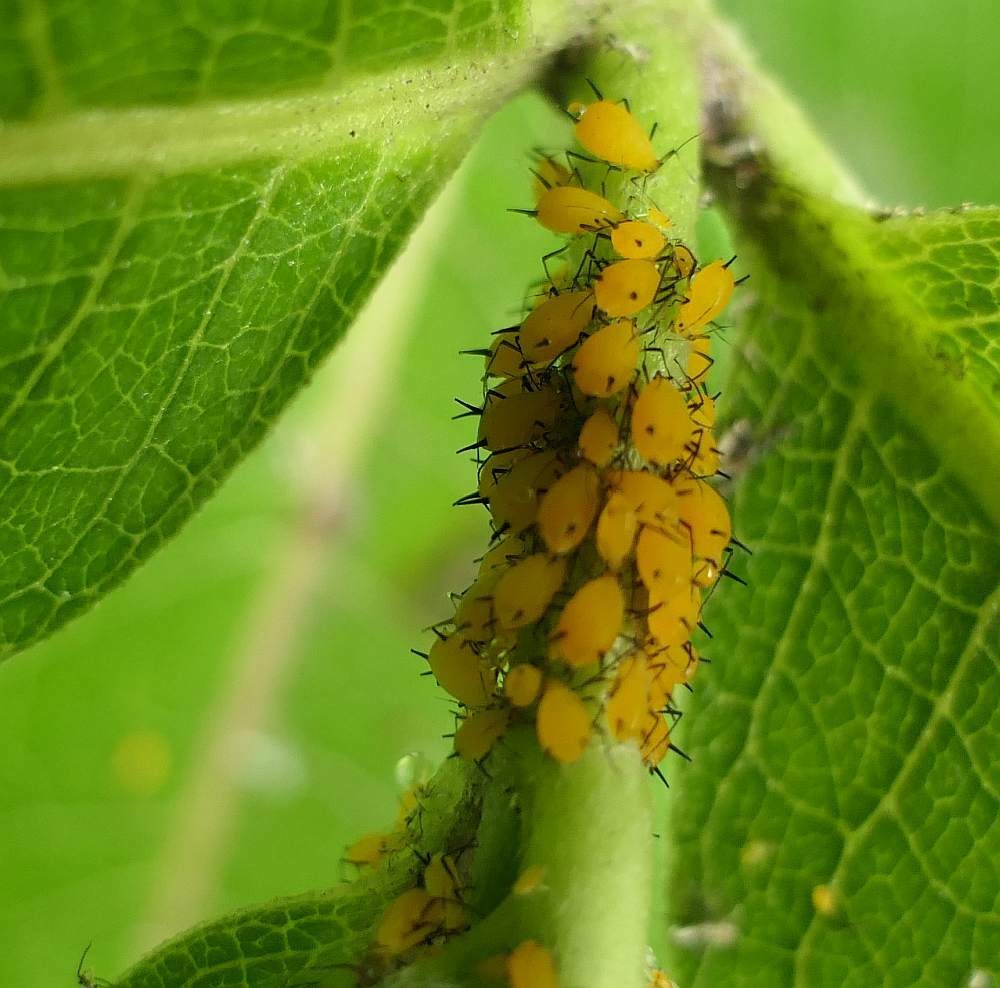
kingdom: Animalia
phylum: Arthropoda
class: Insecta
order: Hemiptera
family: Aphididae
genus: Aphis
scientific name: Aphis nerii
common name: Oleander aphid
